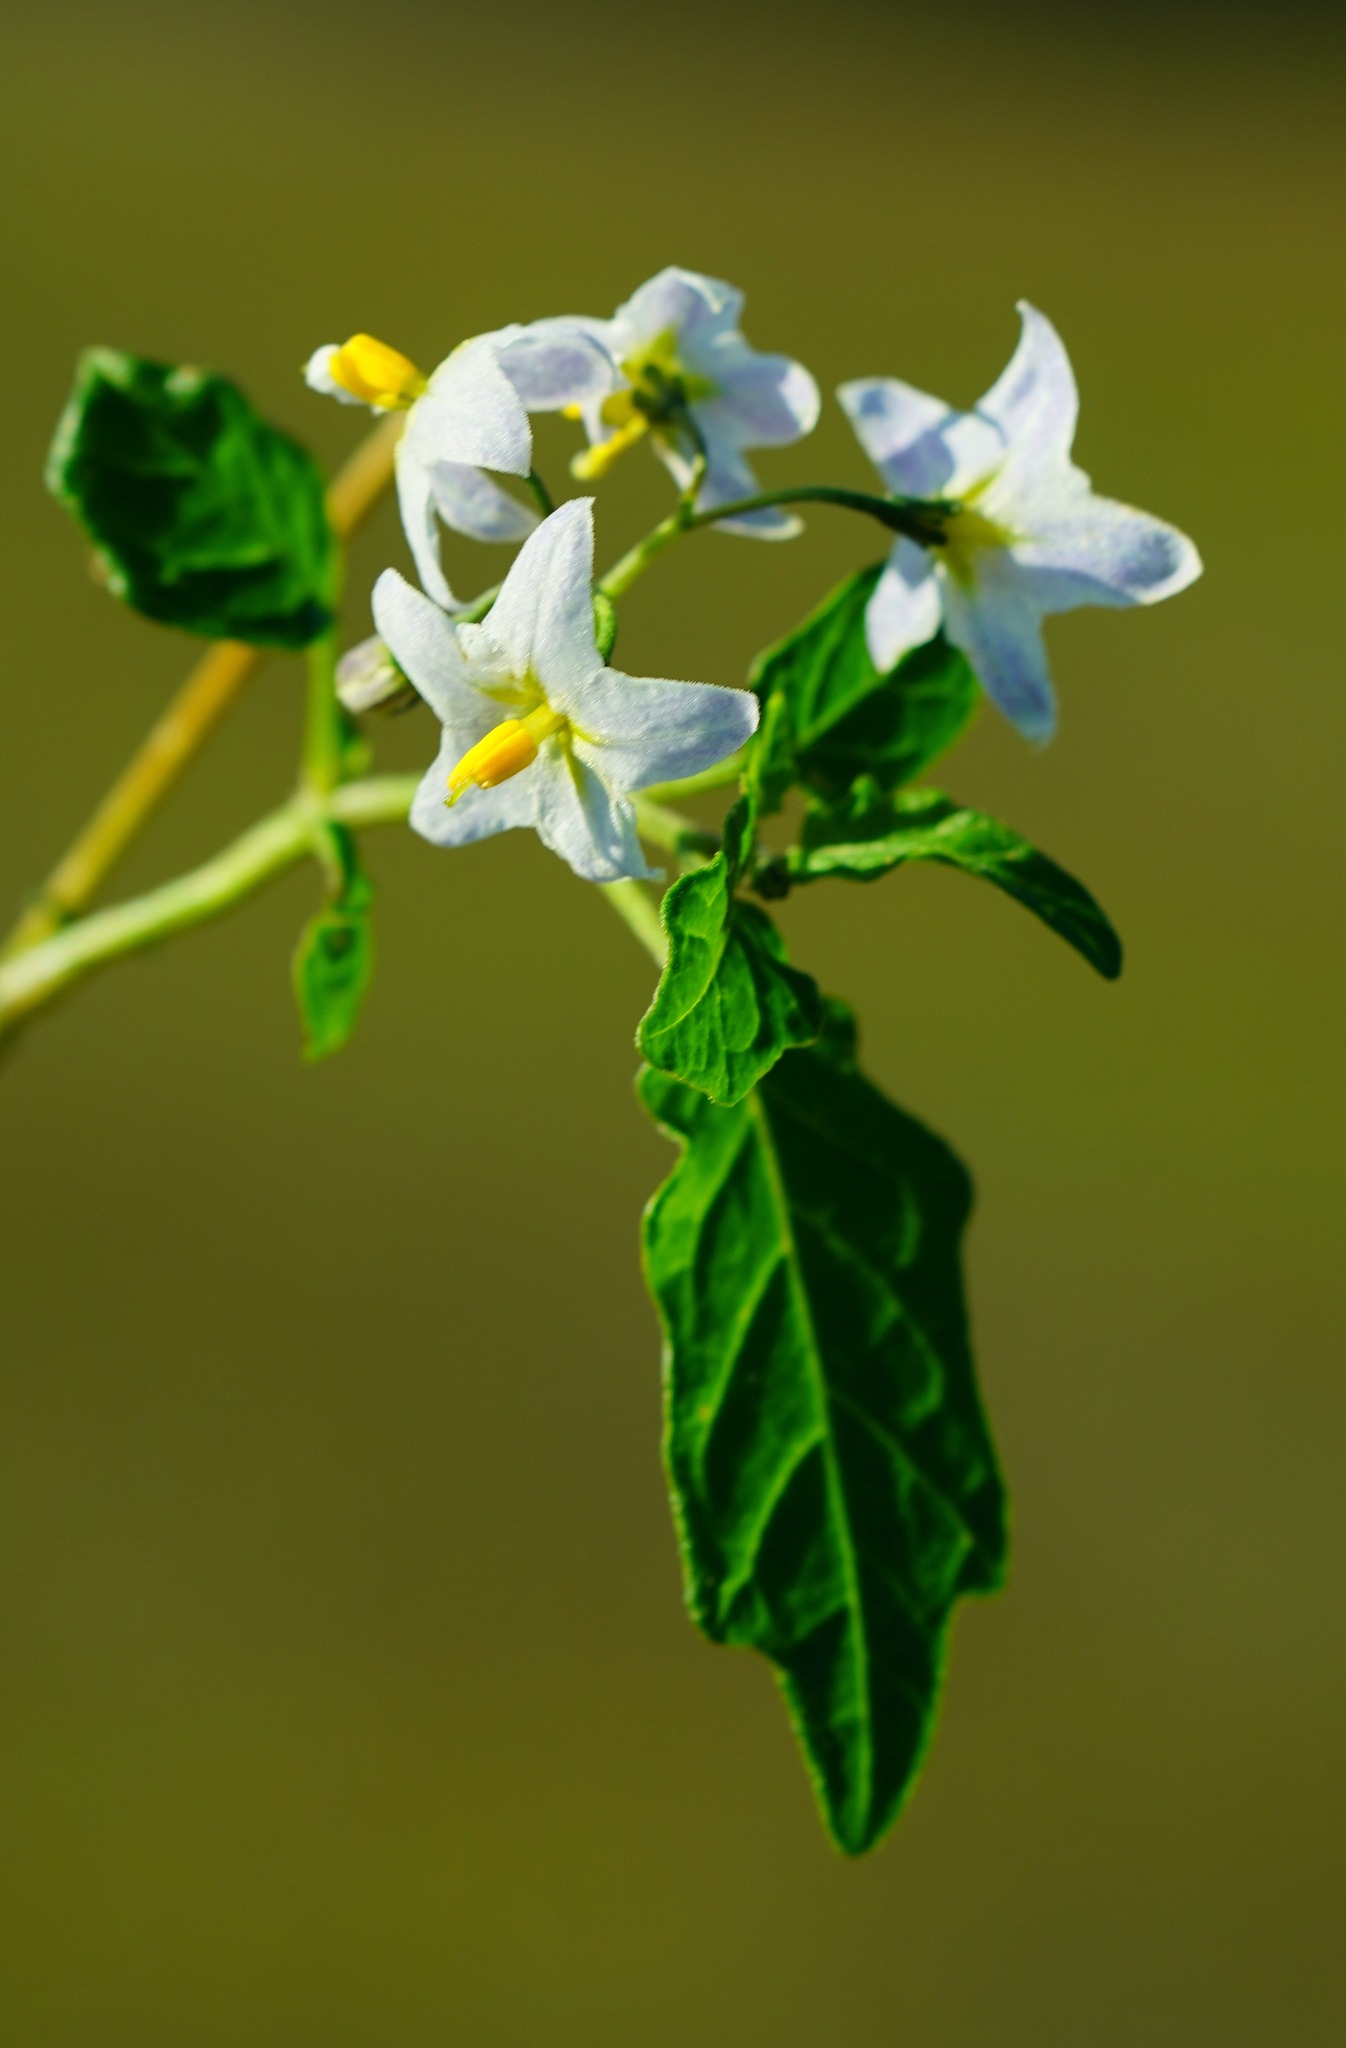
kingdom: Plantae
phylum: Tracheophyta
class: Magnoliopsida
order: Solanales
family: Solanaceae
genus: Solanum
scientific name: Solanum furcatum
